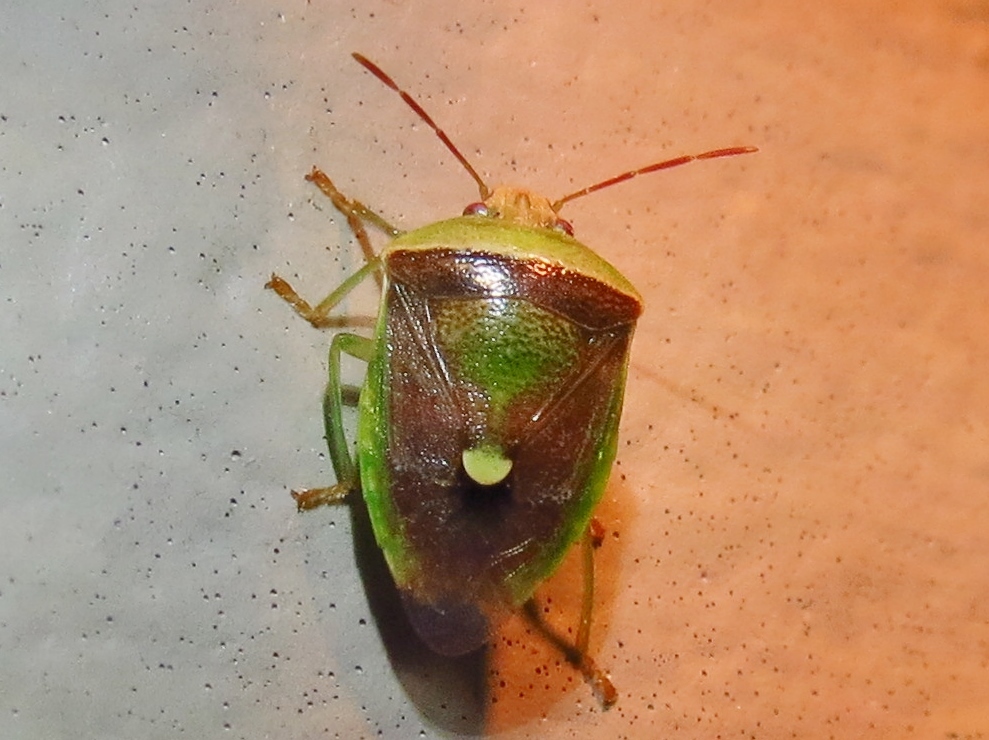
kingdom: Animalia
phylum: Arthropoda
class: Insecta
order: Hemiptera
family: Pentatomidae
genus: Banasa
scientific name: Banasa dimidiata
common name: Green burgundy stink bug
